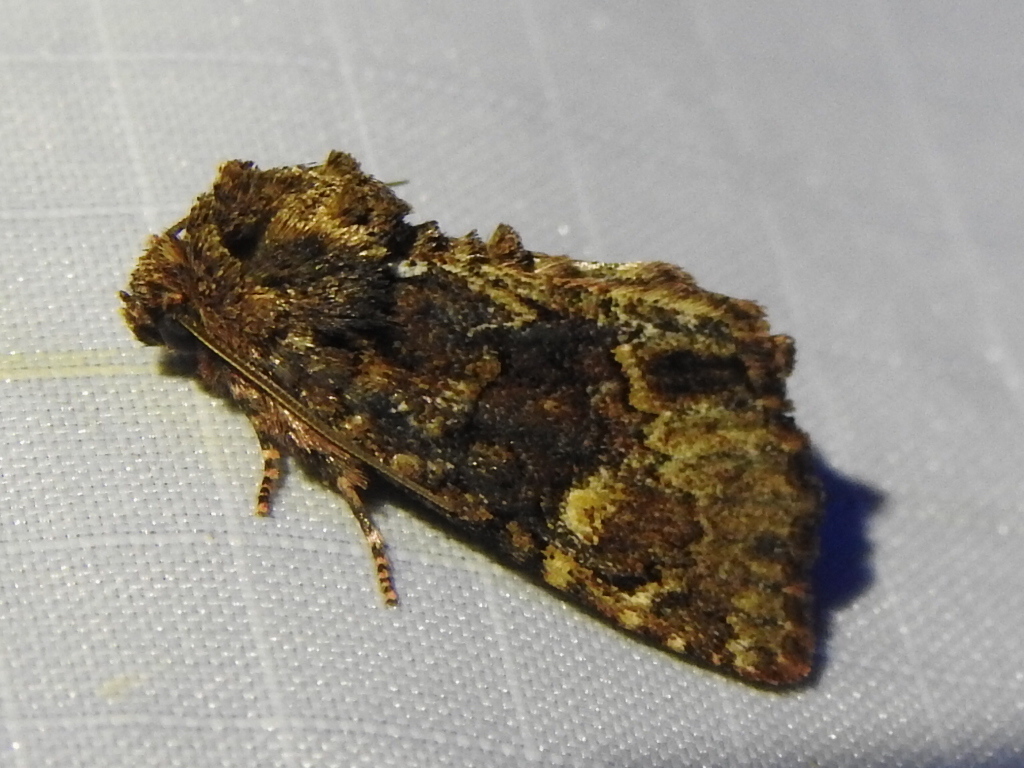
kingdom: Animalia
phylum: Arthropoda
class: Insecta
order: Lepidoptera
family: Noctuidae
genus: Phosphila
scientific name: Phosphila turbulenta
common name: Turbulent phosphila moth
